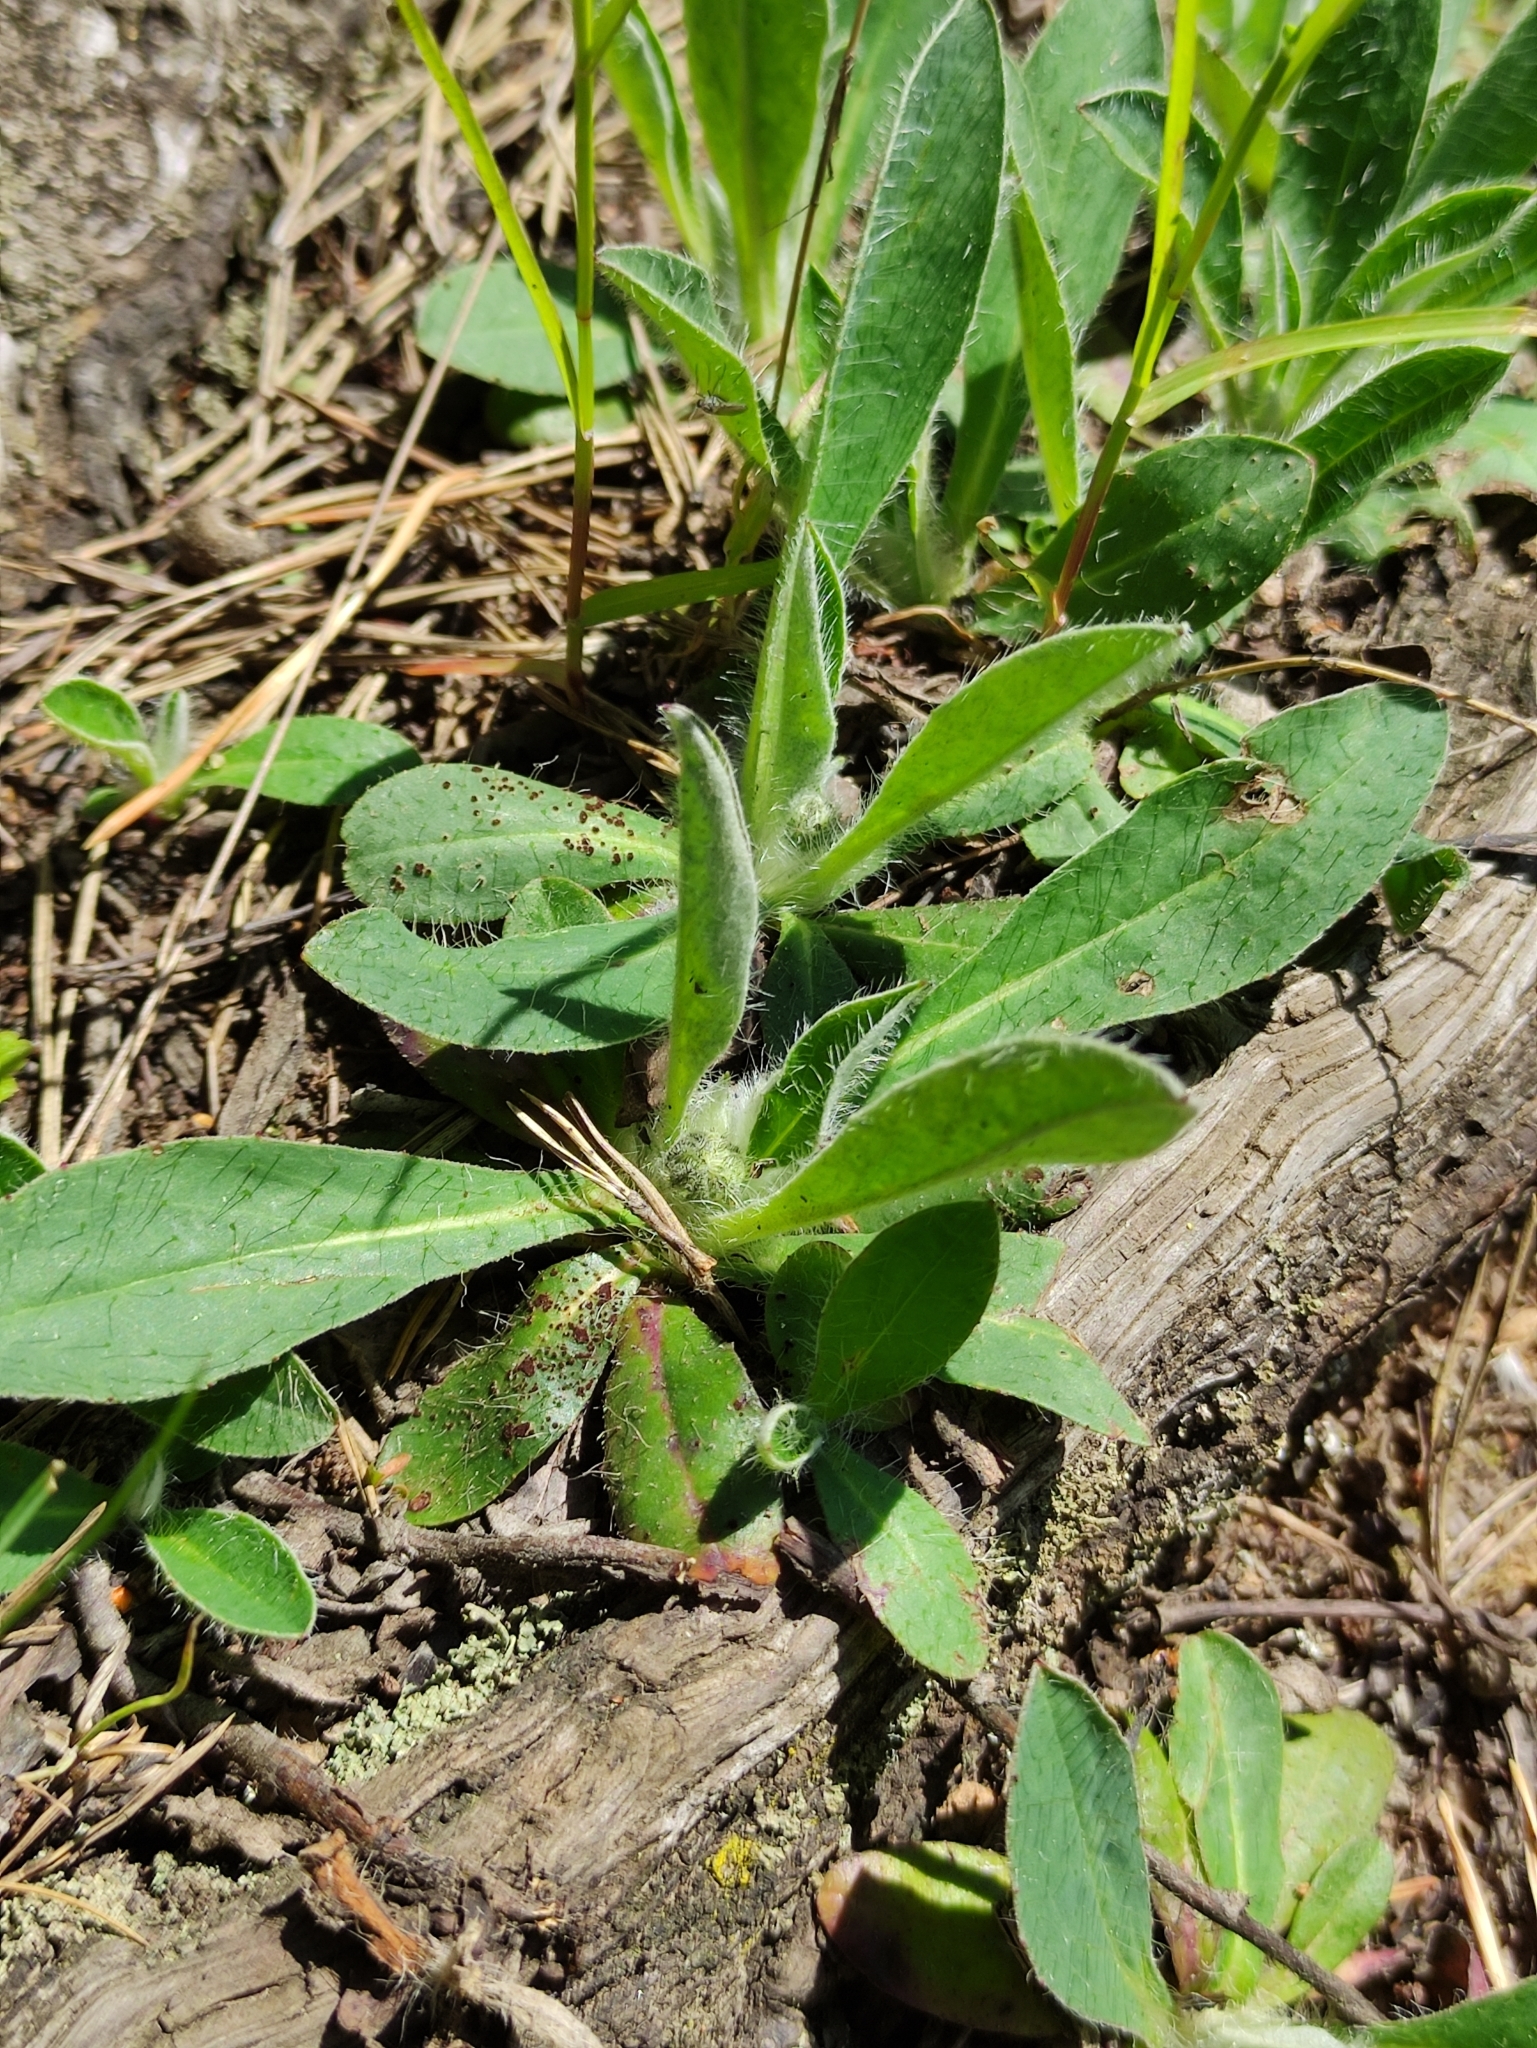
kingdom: Plantae
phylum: Tracheophyta
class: Magnoliopsida
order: Asterales
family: Asteraceae
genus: Pilosella
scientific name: Pilosella officinarum
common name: Mouse-ear hawkweed
